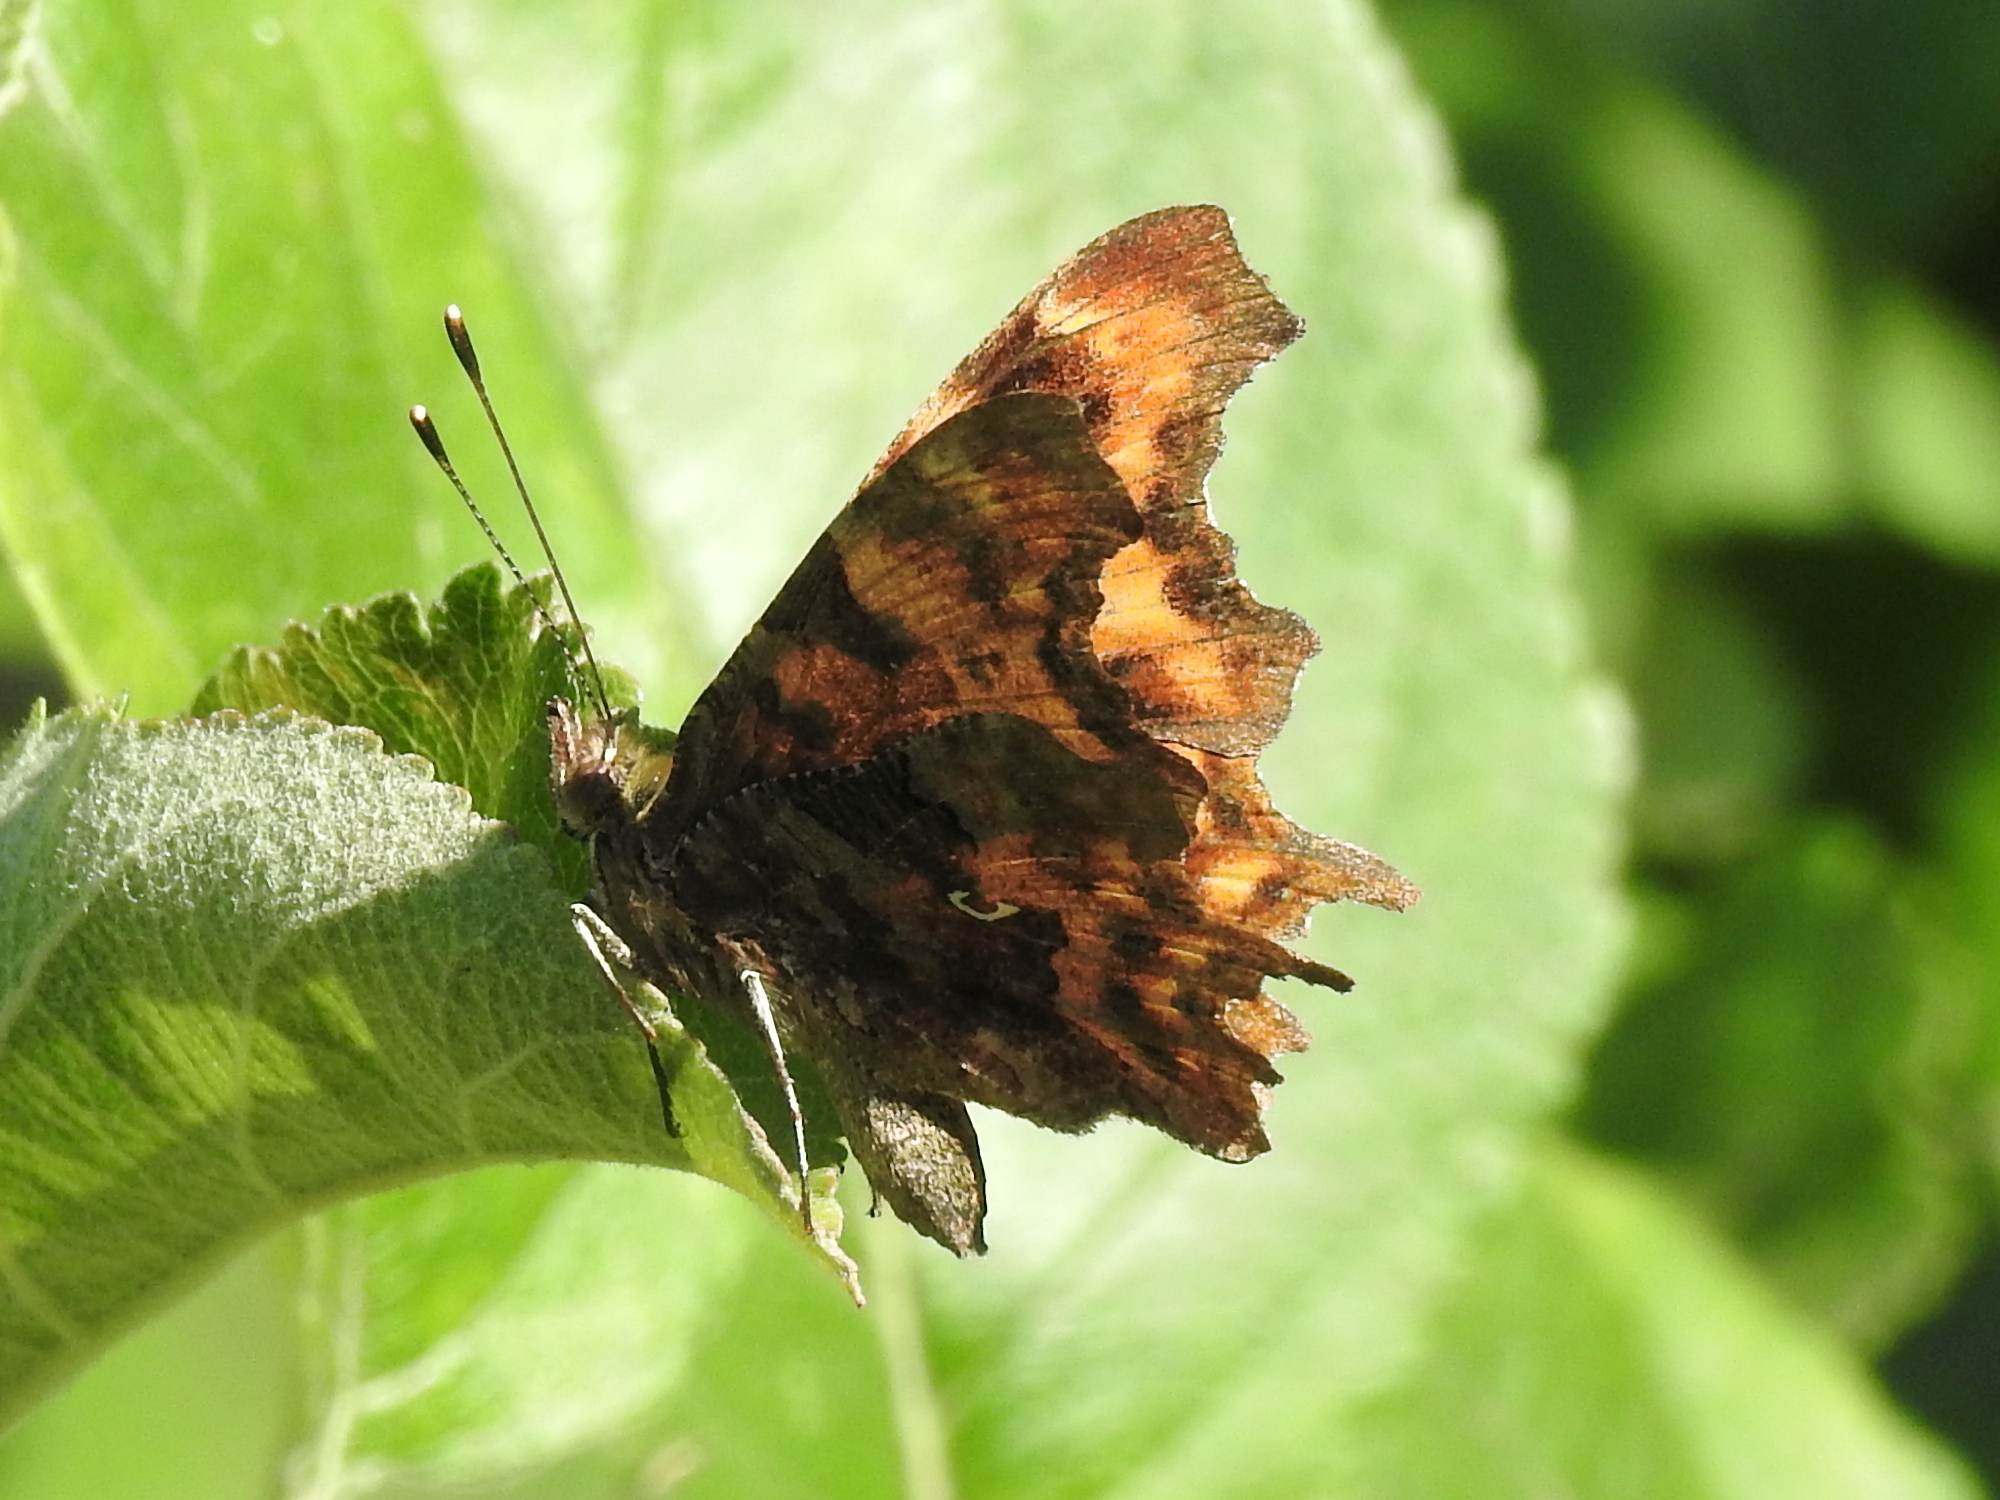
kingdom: Animalia
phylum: Arthropoda
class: Insecta
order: Lepidoptera
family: Nymphalidae
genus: Polygonia
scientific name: Polygonia c-album
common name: Comma
